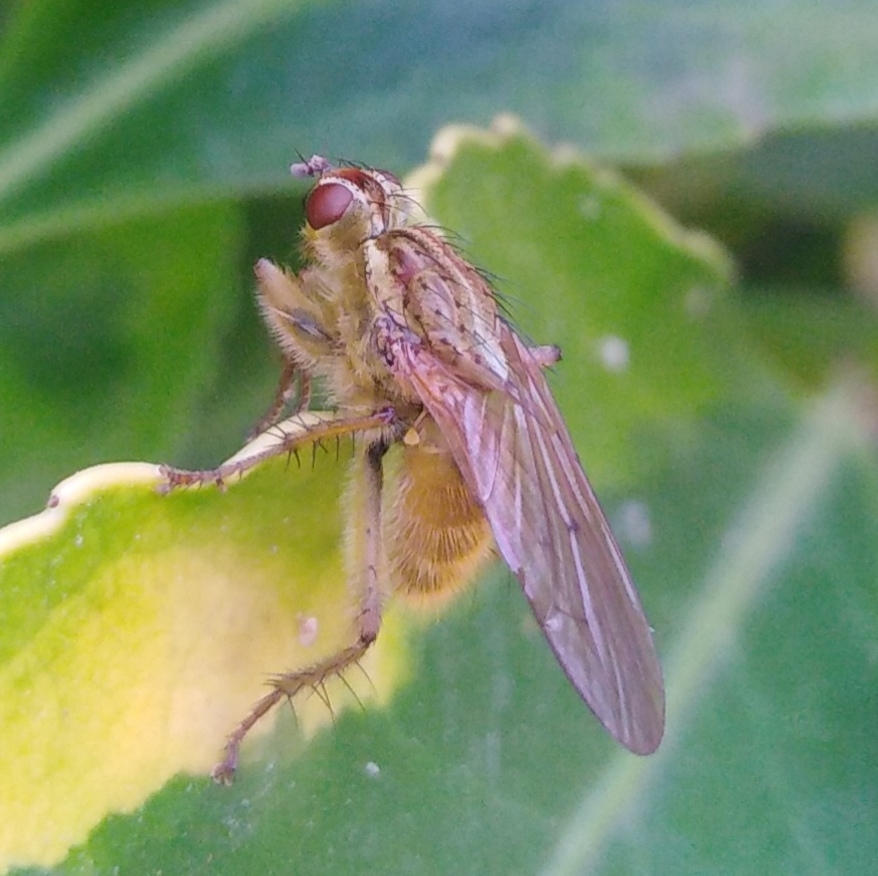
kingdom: Animalia
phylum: Arthropoda
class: Insecta
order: Diptera
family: Scathophagidae
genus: Scathophaga
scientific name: Scathophaga stercoraria
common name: Yellow dung fly
